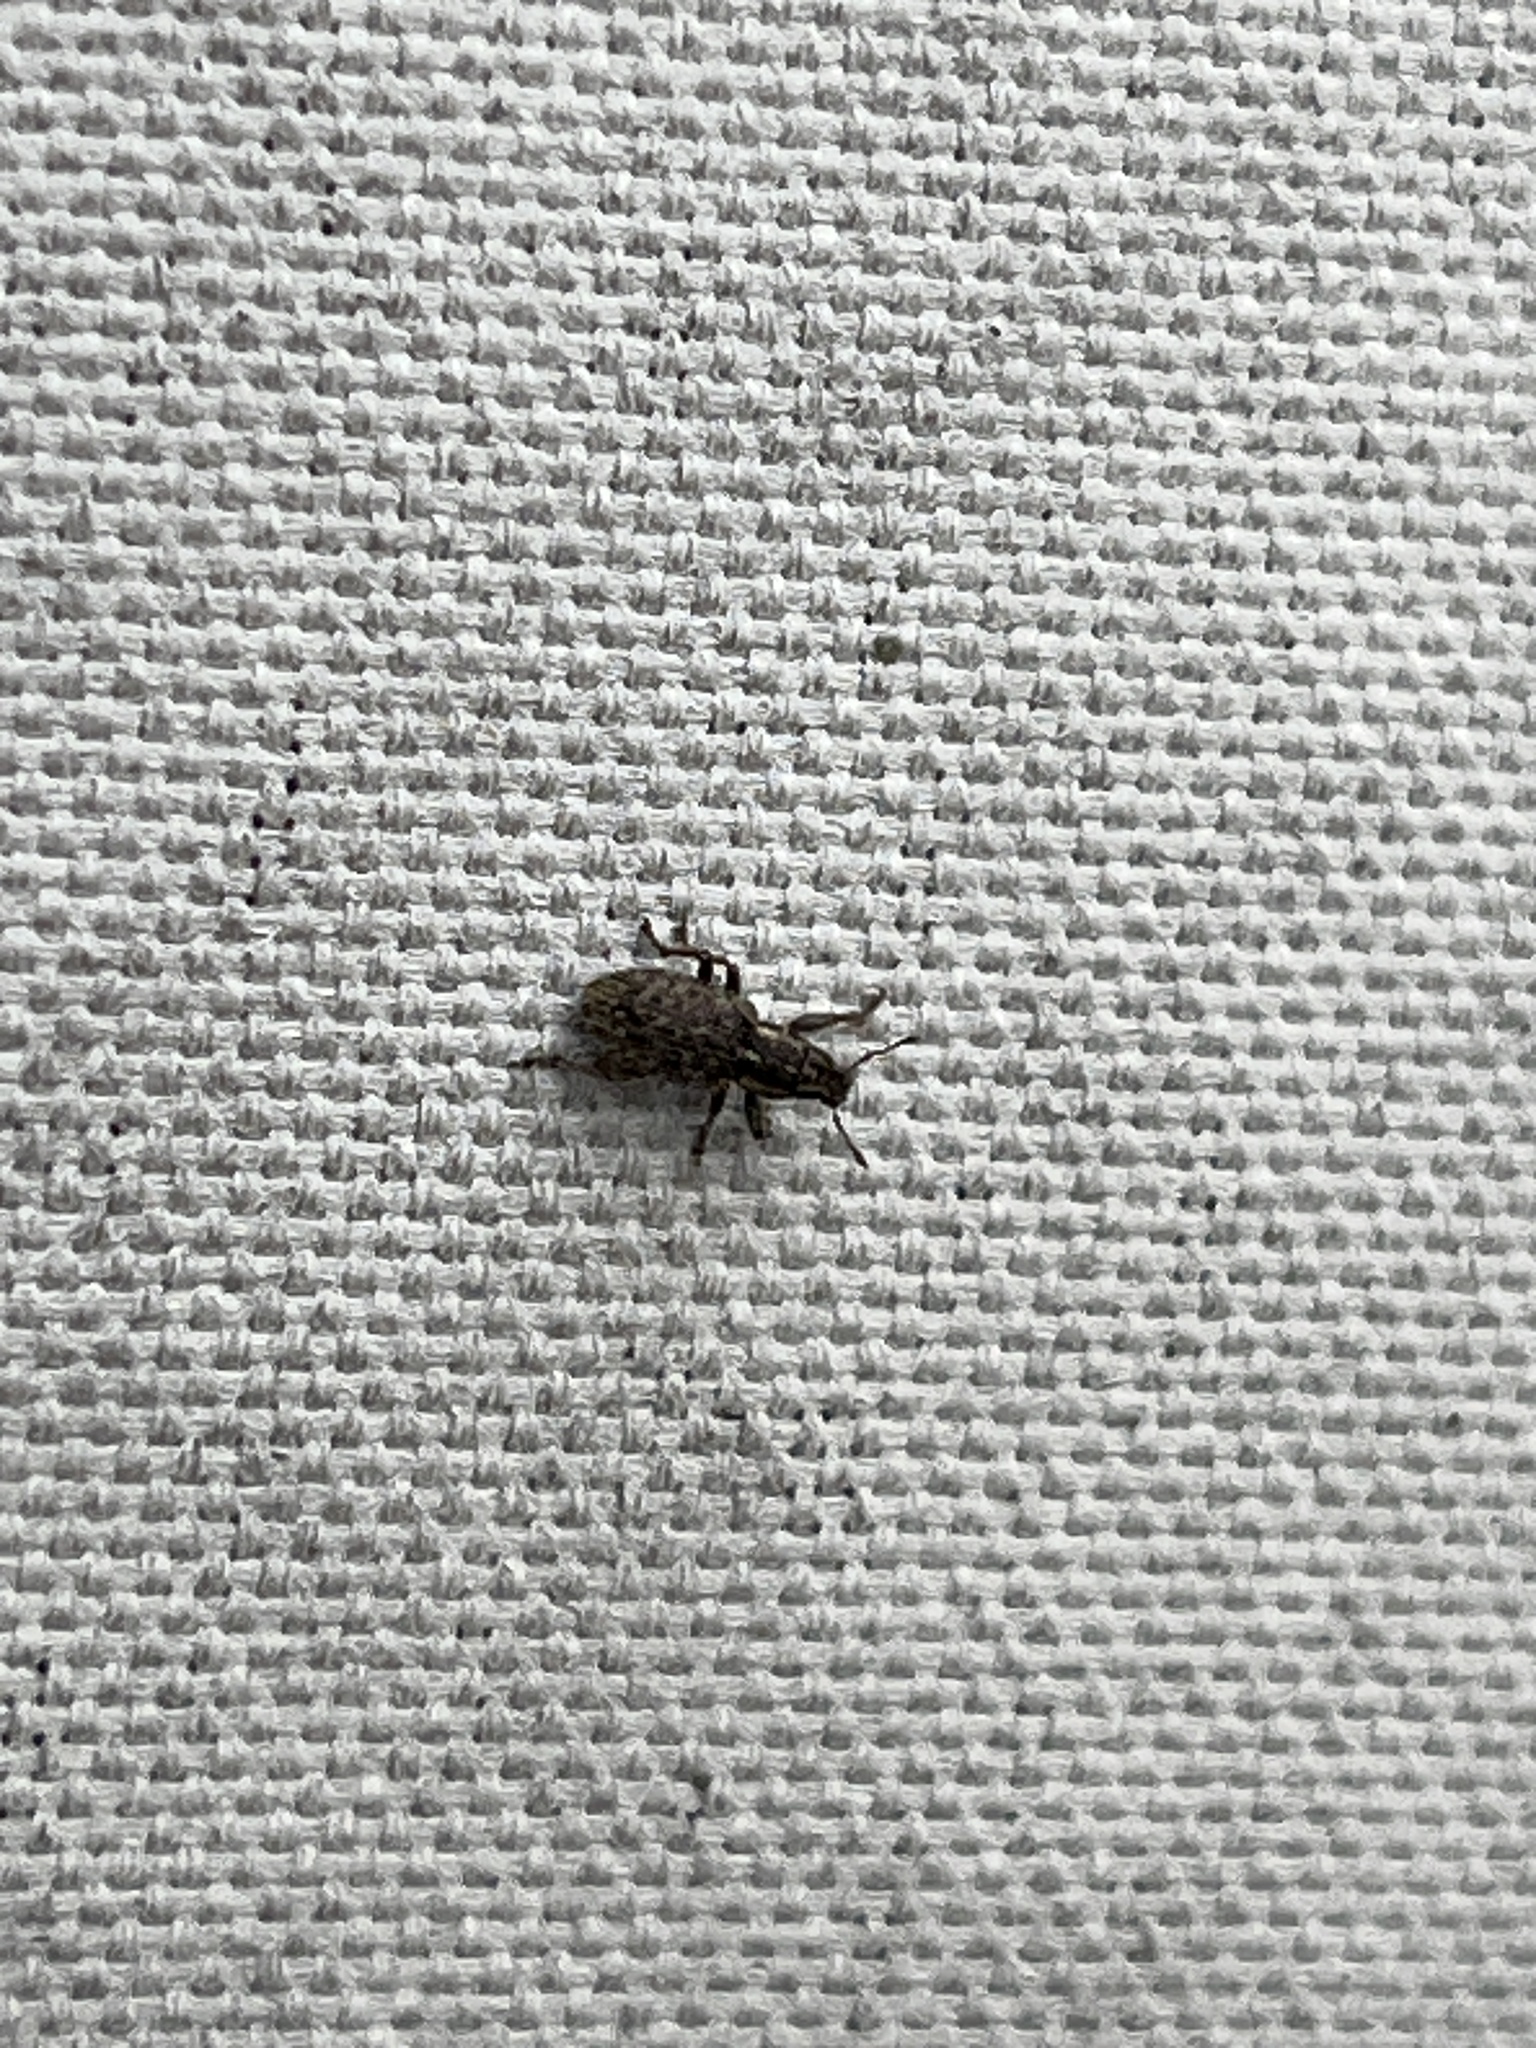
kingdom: Animalia
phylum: Arthropoda
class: Insecta
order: Coleoptera
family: Curculionidae
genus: Sitona
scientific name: Sitona hispidulus
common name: Clover weevil
